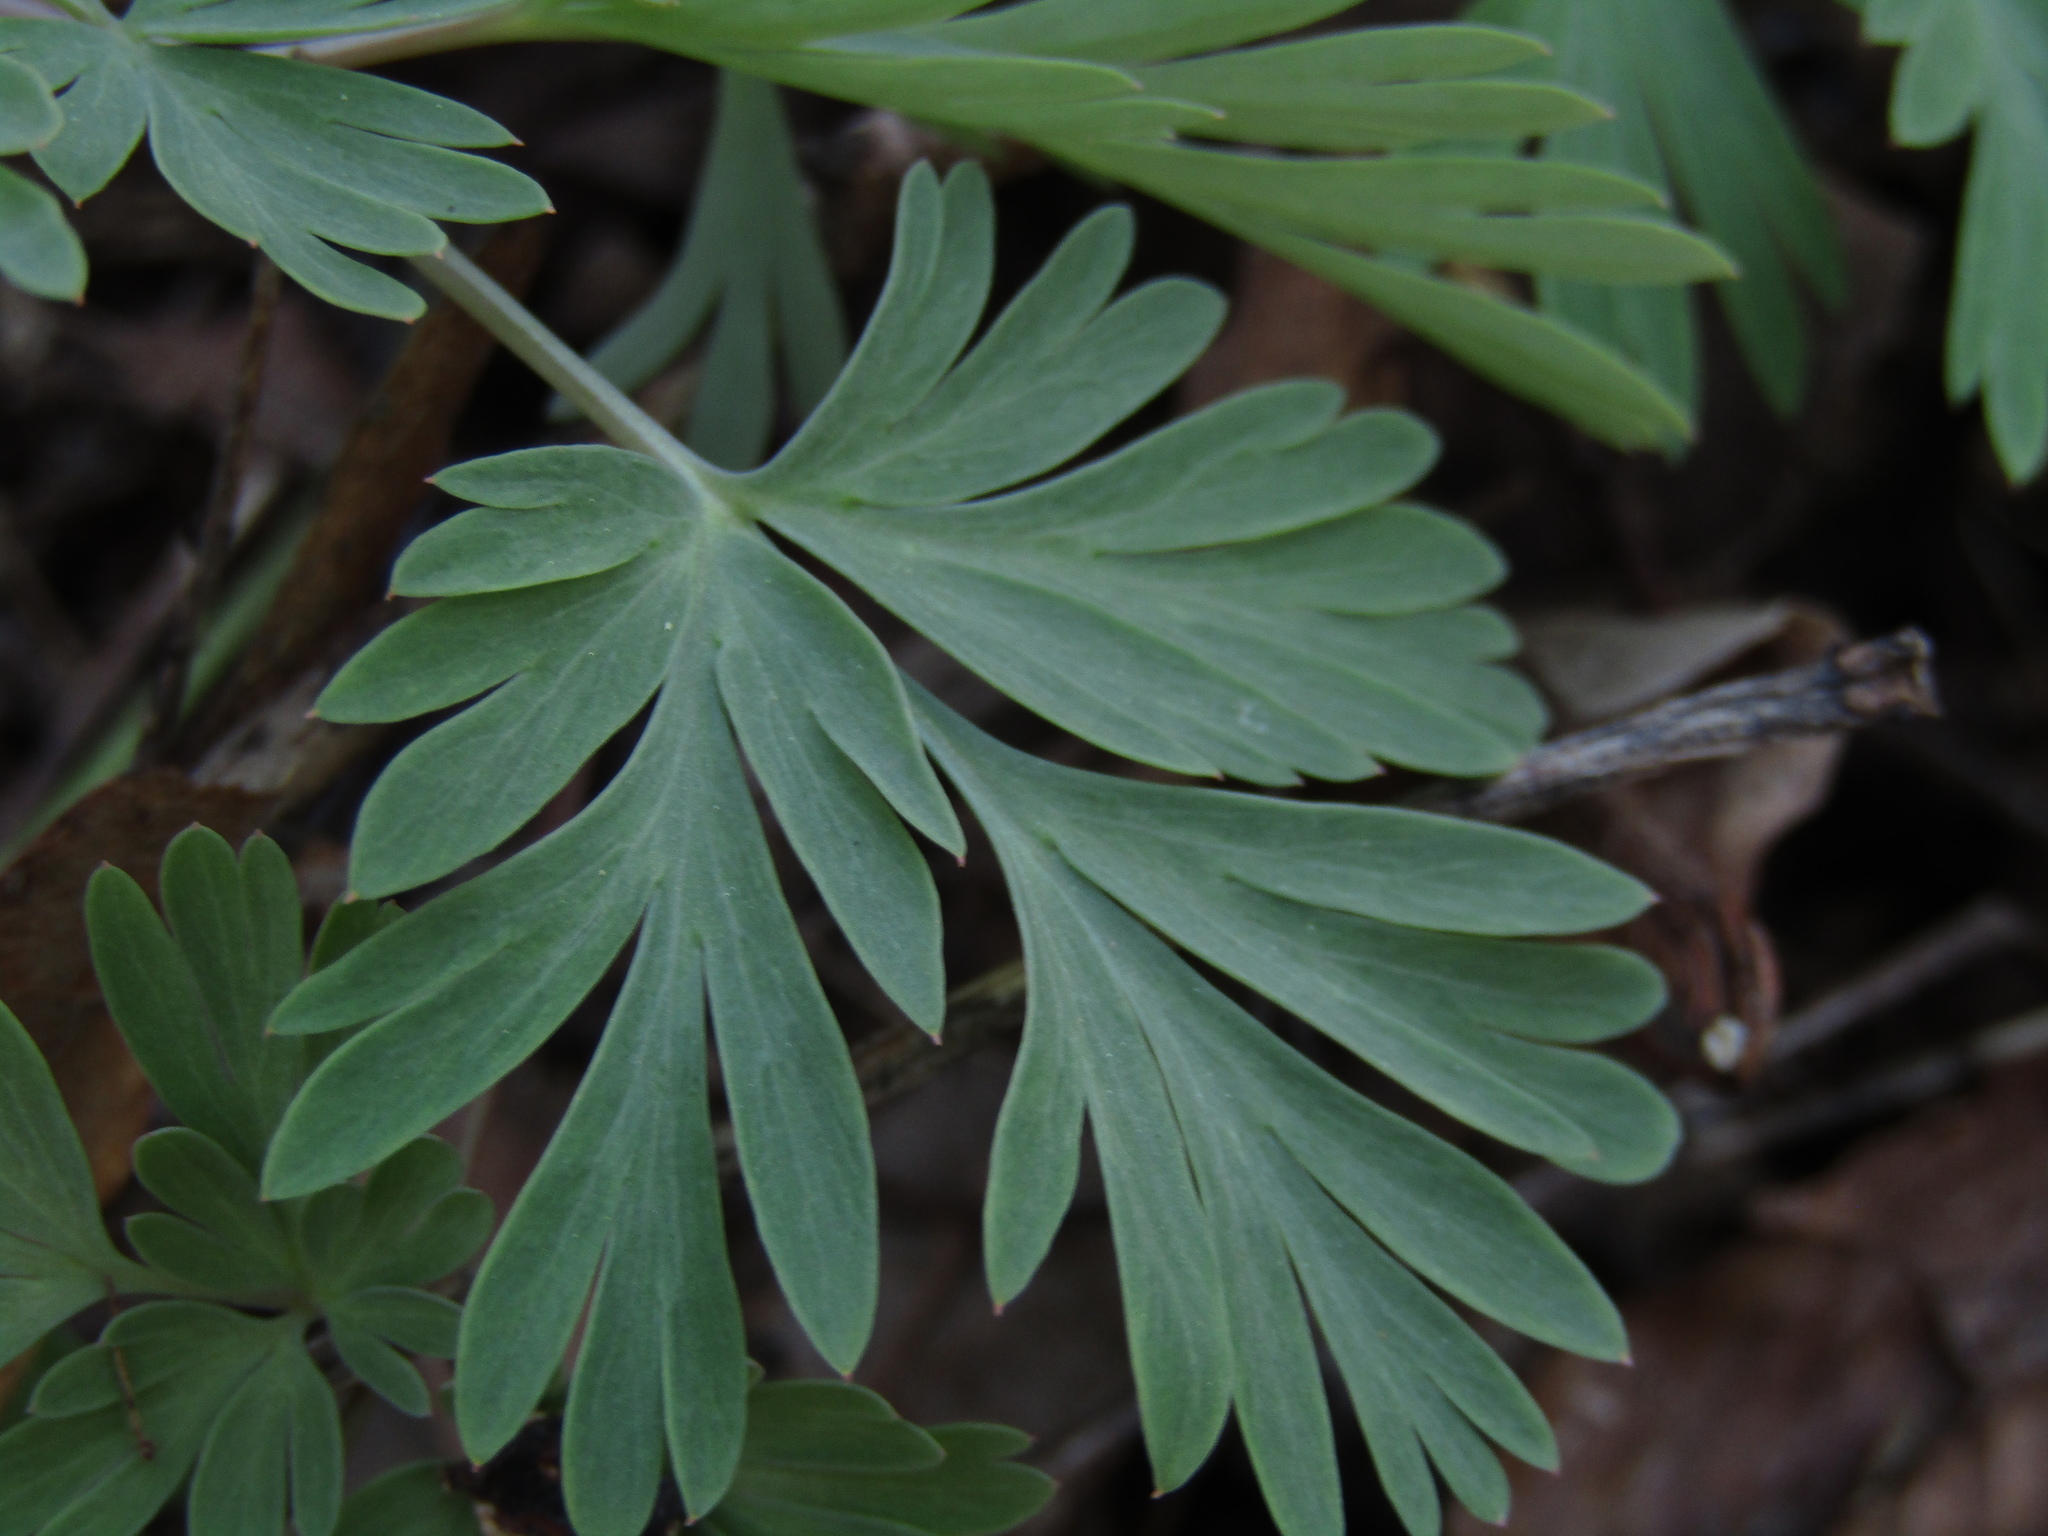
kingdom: Plantae
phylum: Tracheophyta
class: Magnoliopsida
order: Ranunculales
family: Papaveraceae
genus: Dicentra
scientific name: Dicentra cucullaria
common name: Dutchman's breeches
